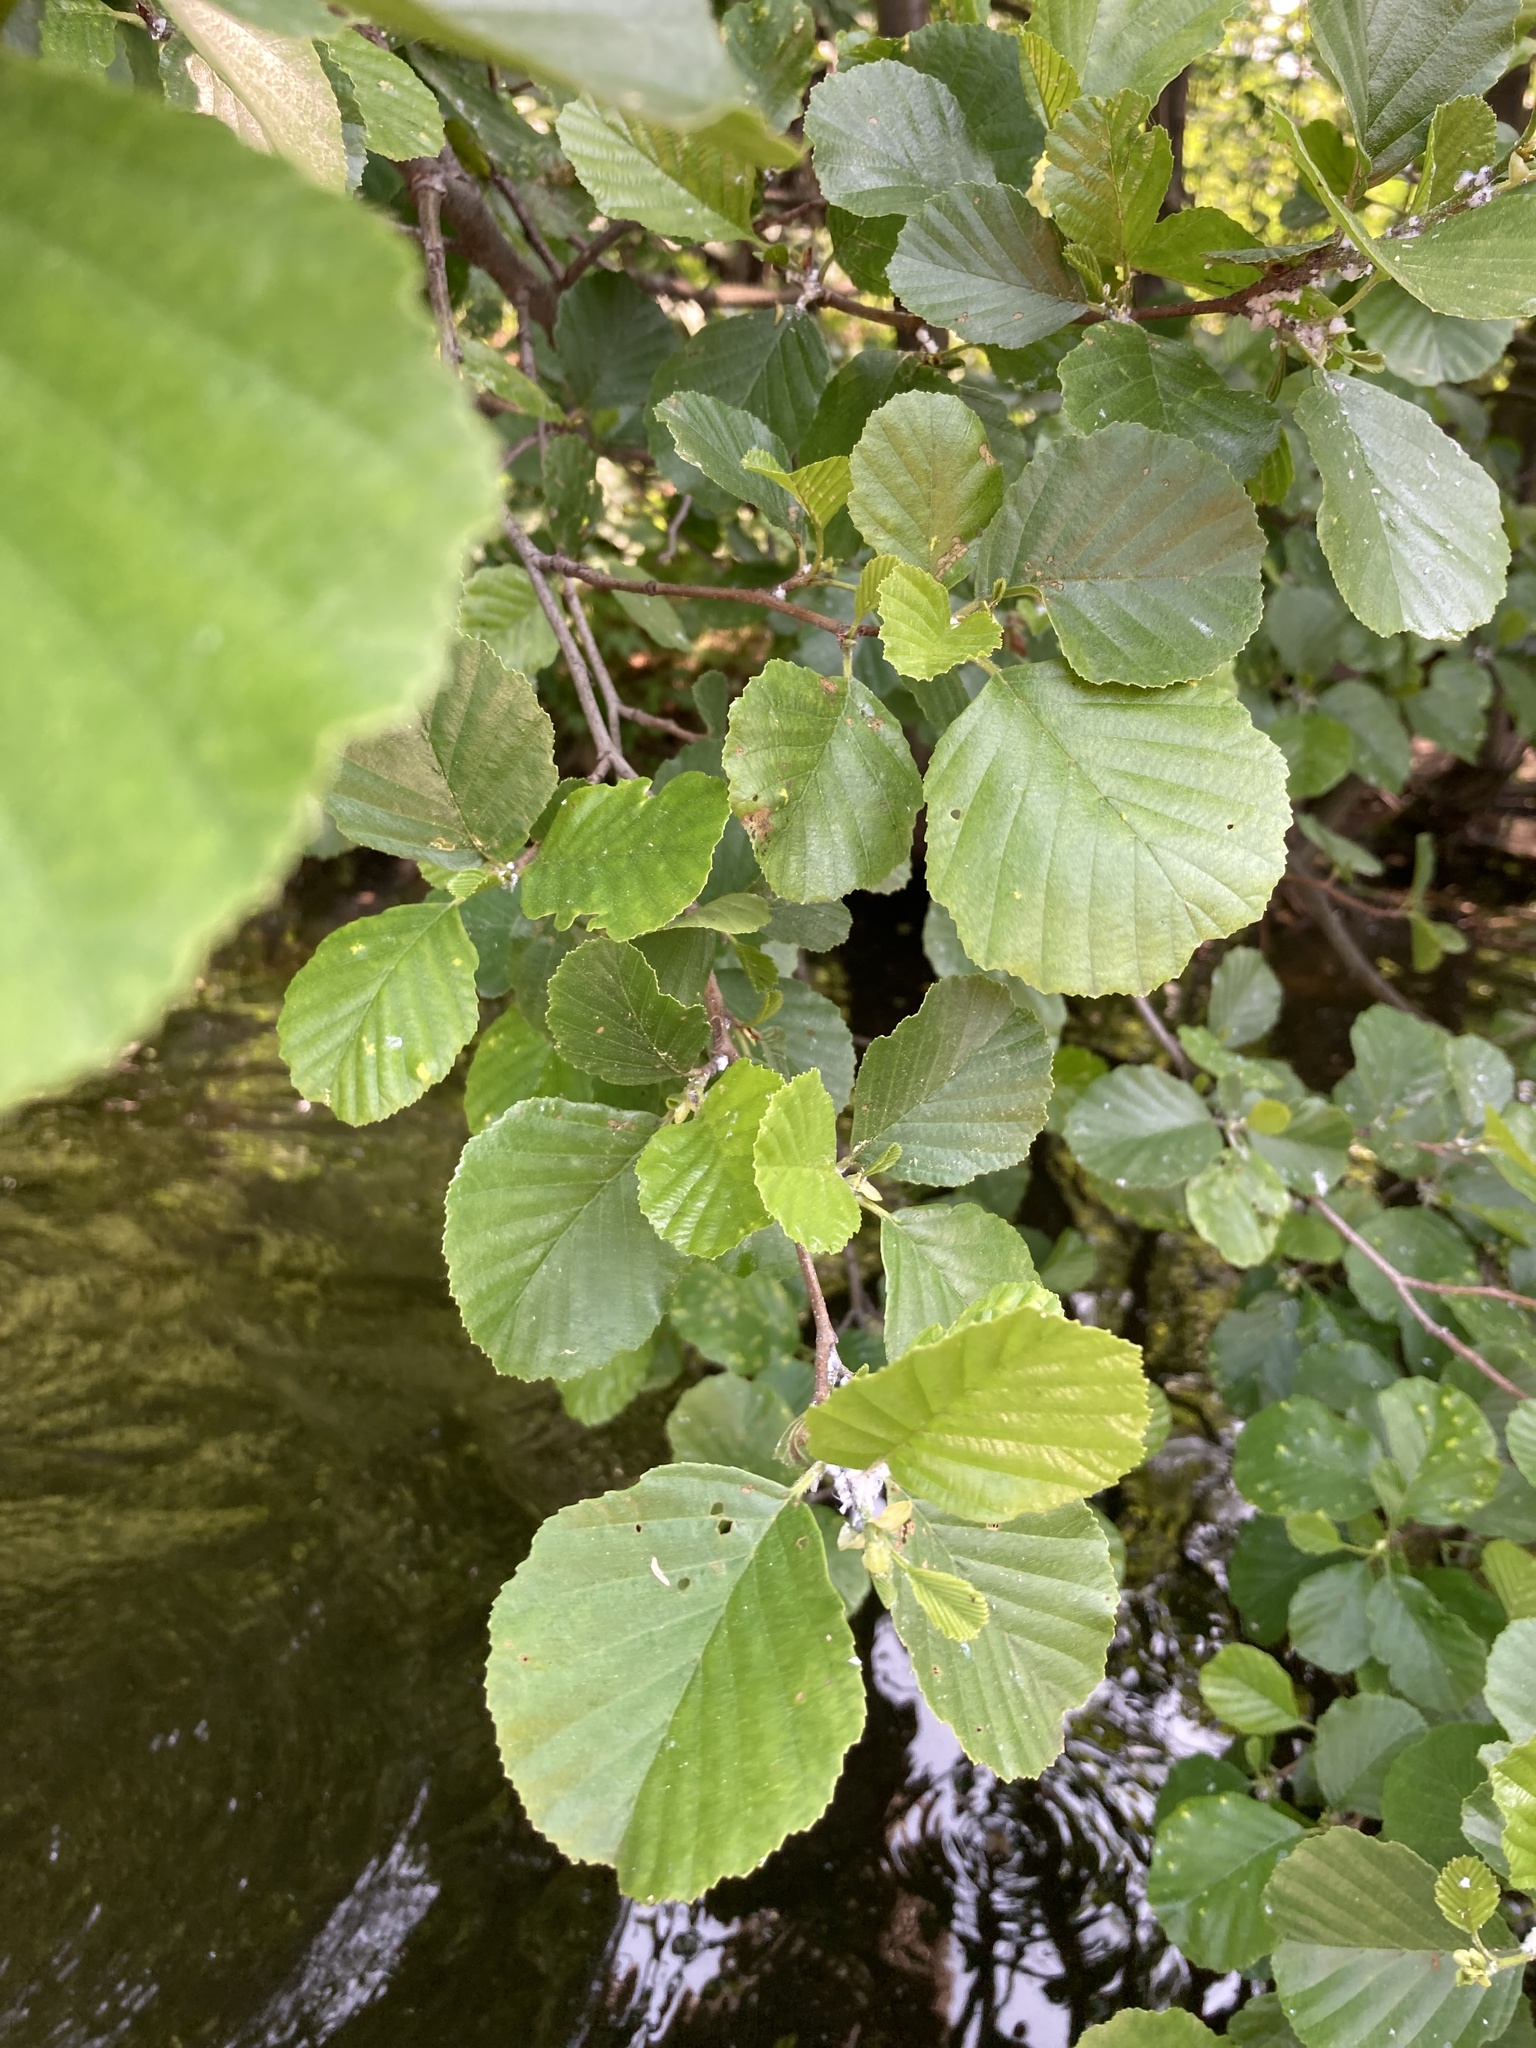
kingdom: Plantae
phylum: Tracheophyta
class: Magnoliopsida
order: Fagales
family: Betulaceae
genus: Alnus
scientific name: Alnus glutinosa
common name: Black alder
